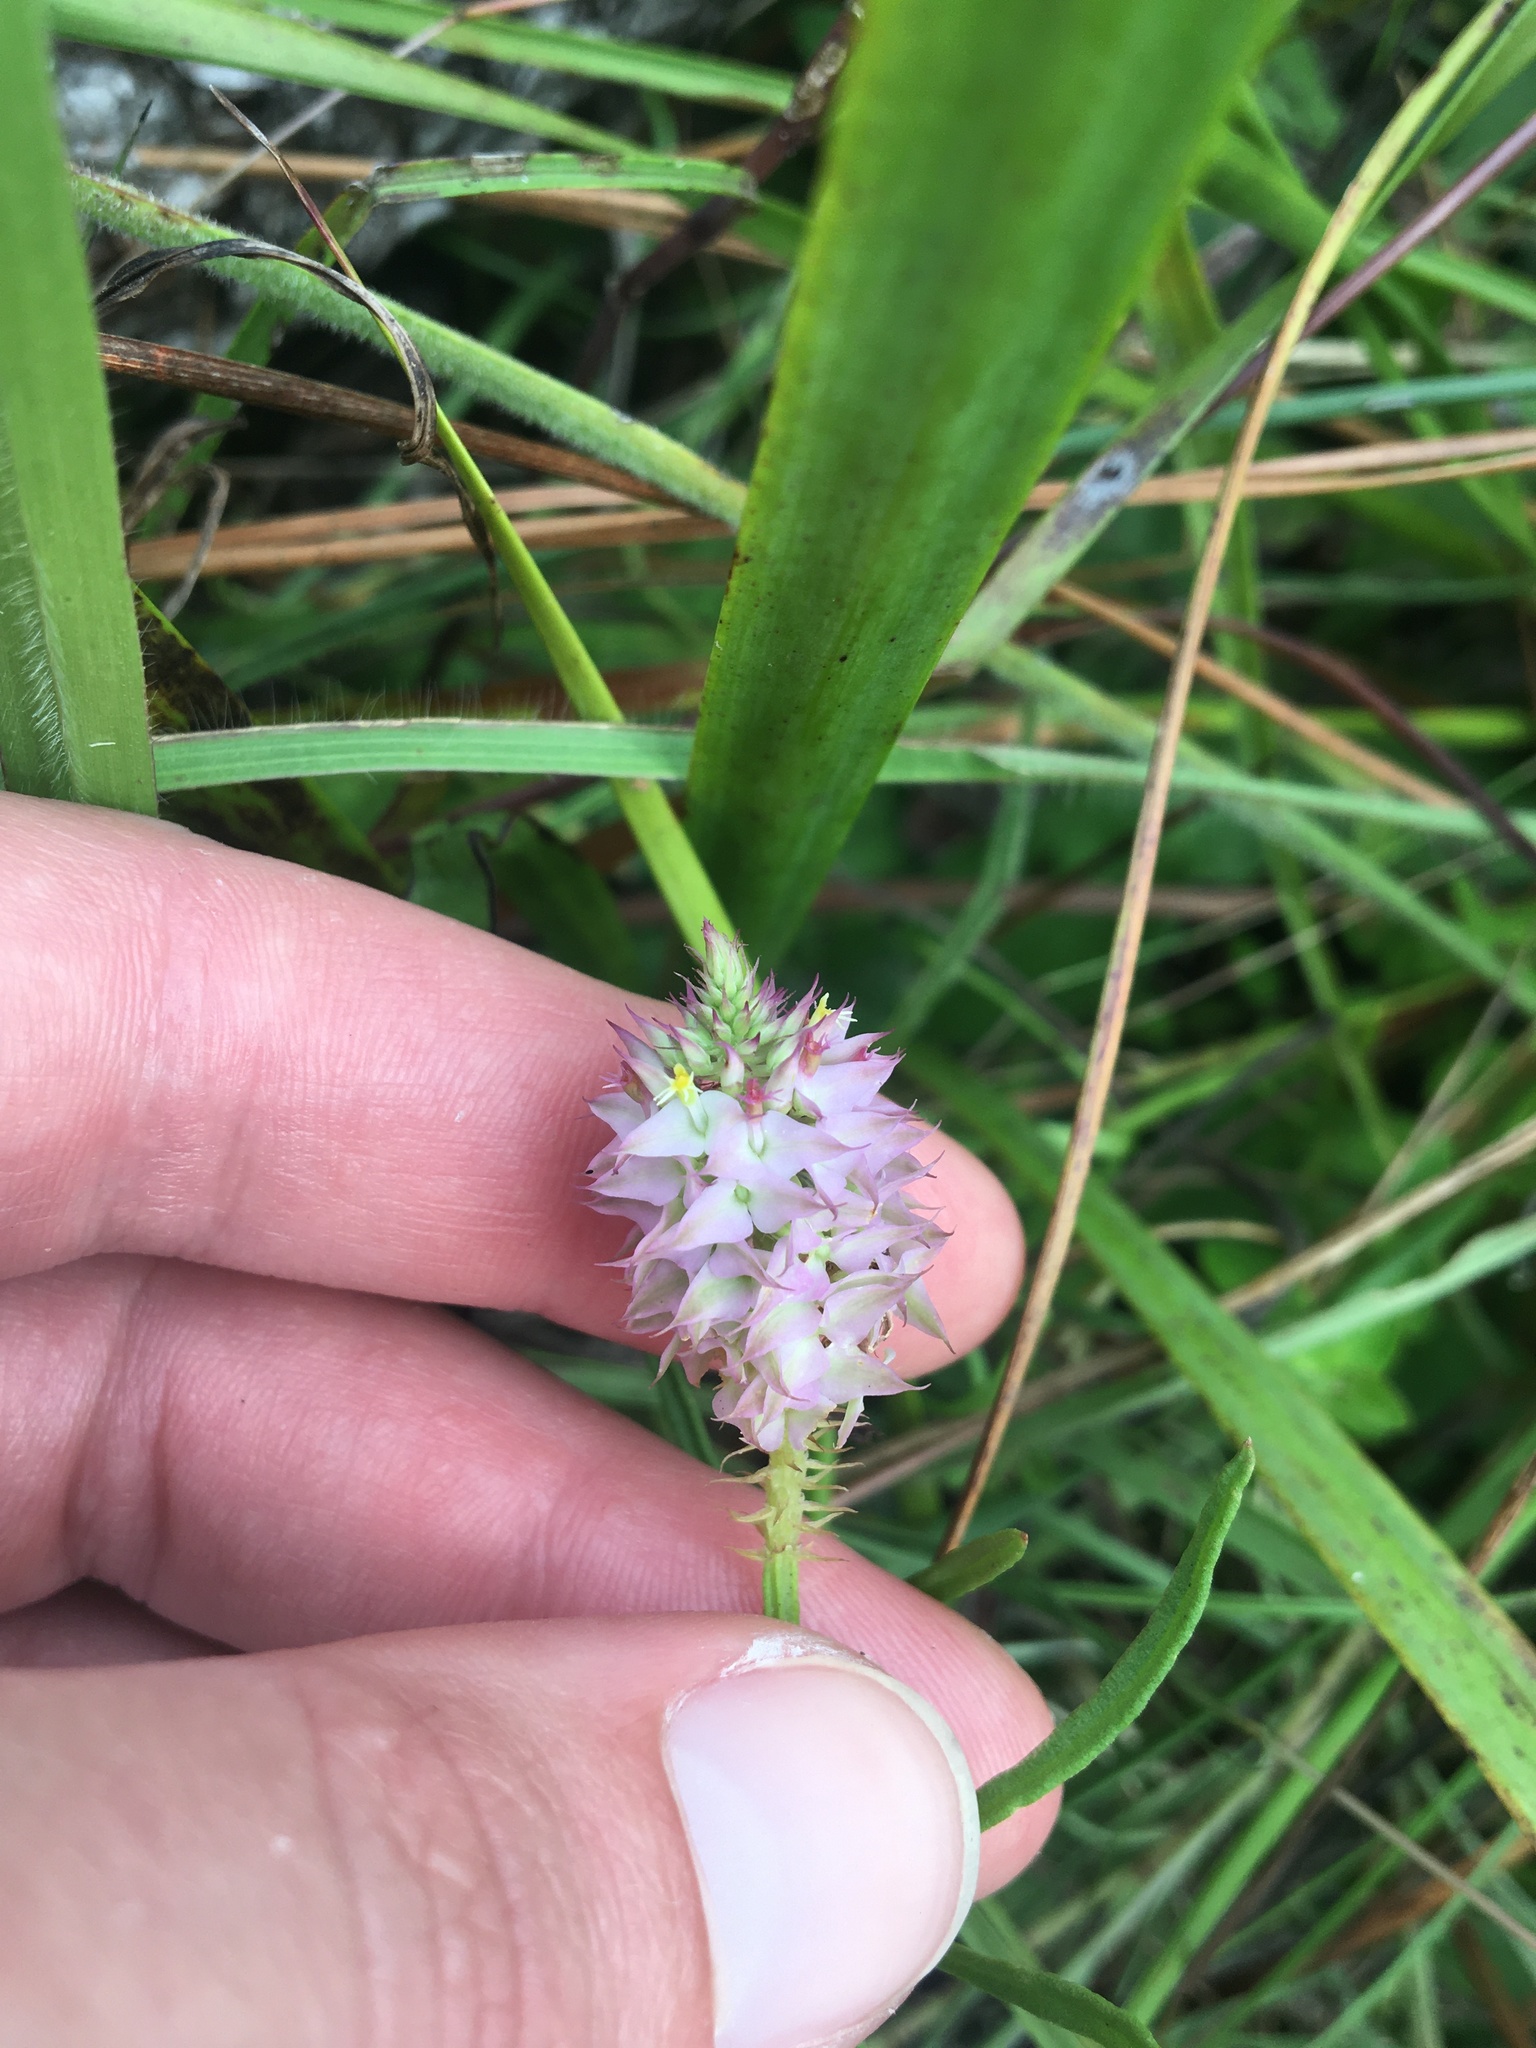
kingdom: Plantae
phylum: Tracheophyta
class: Magnoliopsida
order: Fabales
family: Polygalaceae
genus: Polygala
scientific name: Polygala cruciata
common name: Drumheads
